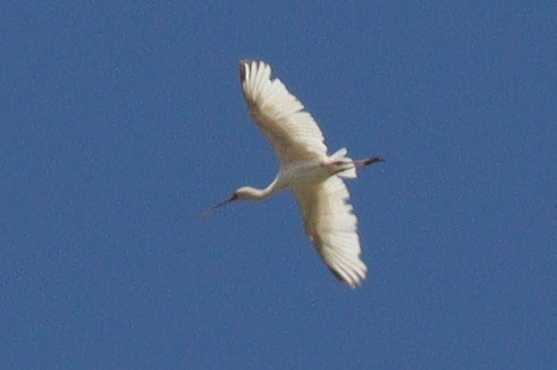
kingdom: Animalia
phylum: Chordata
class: Aves
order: Pelecaniformes
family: Threskiornithidae
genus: Platalea
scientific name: Platalea alba
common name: African spoonbill
